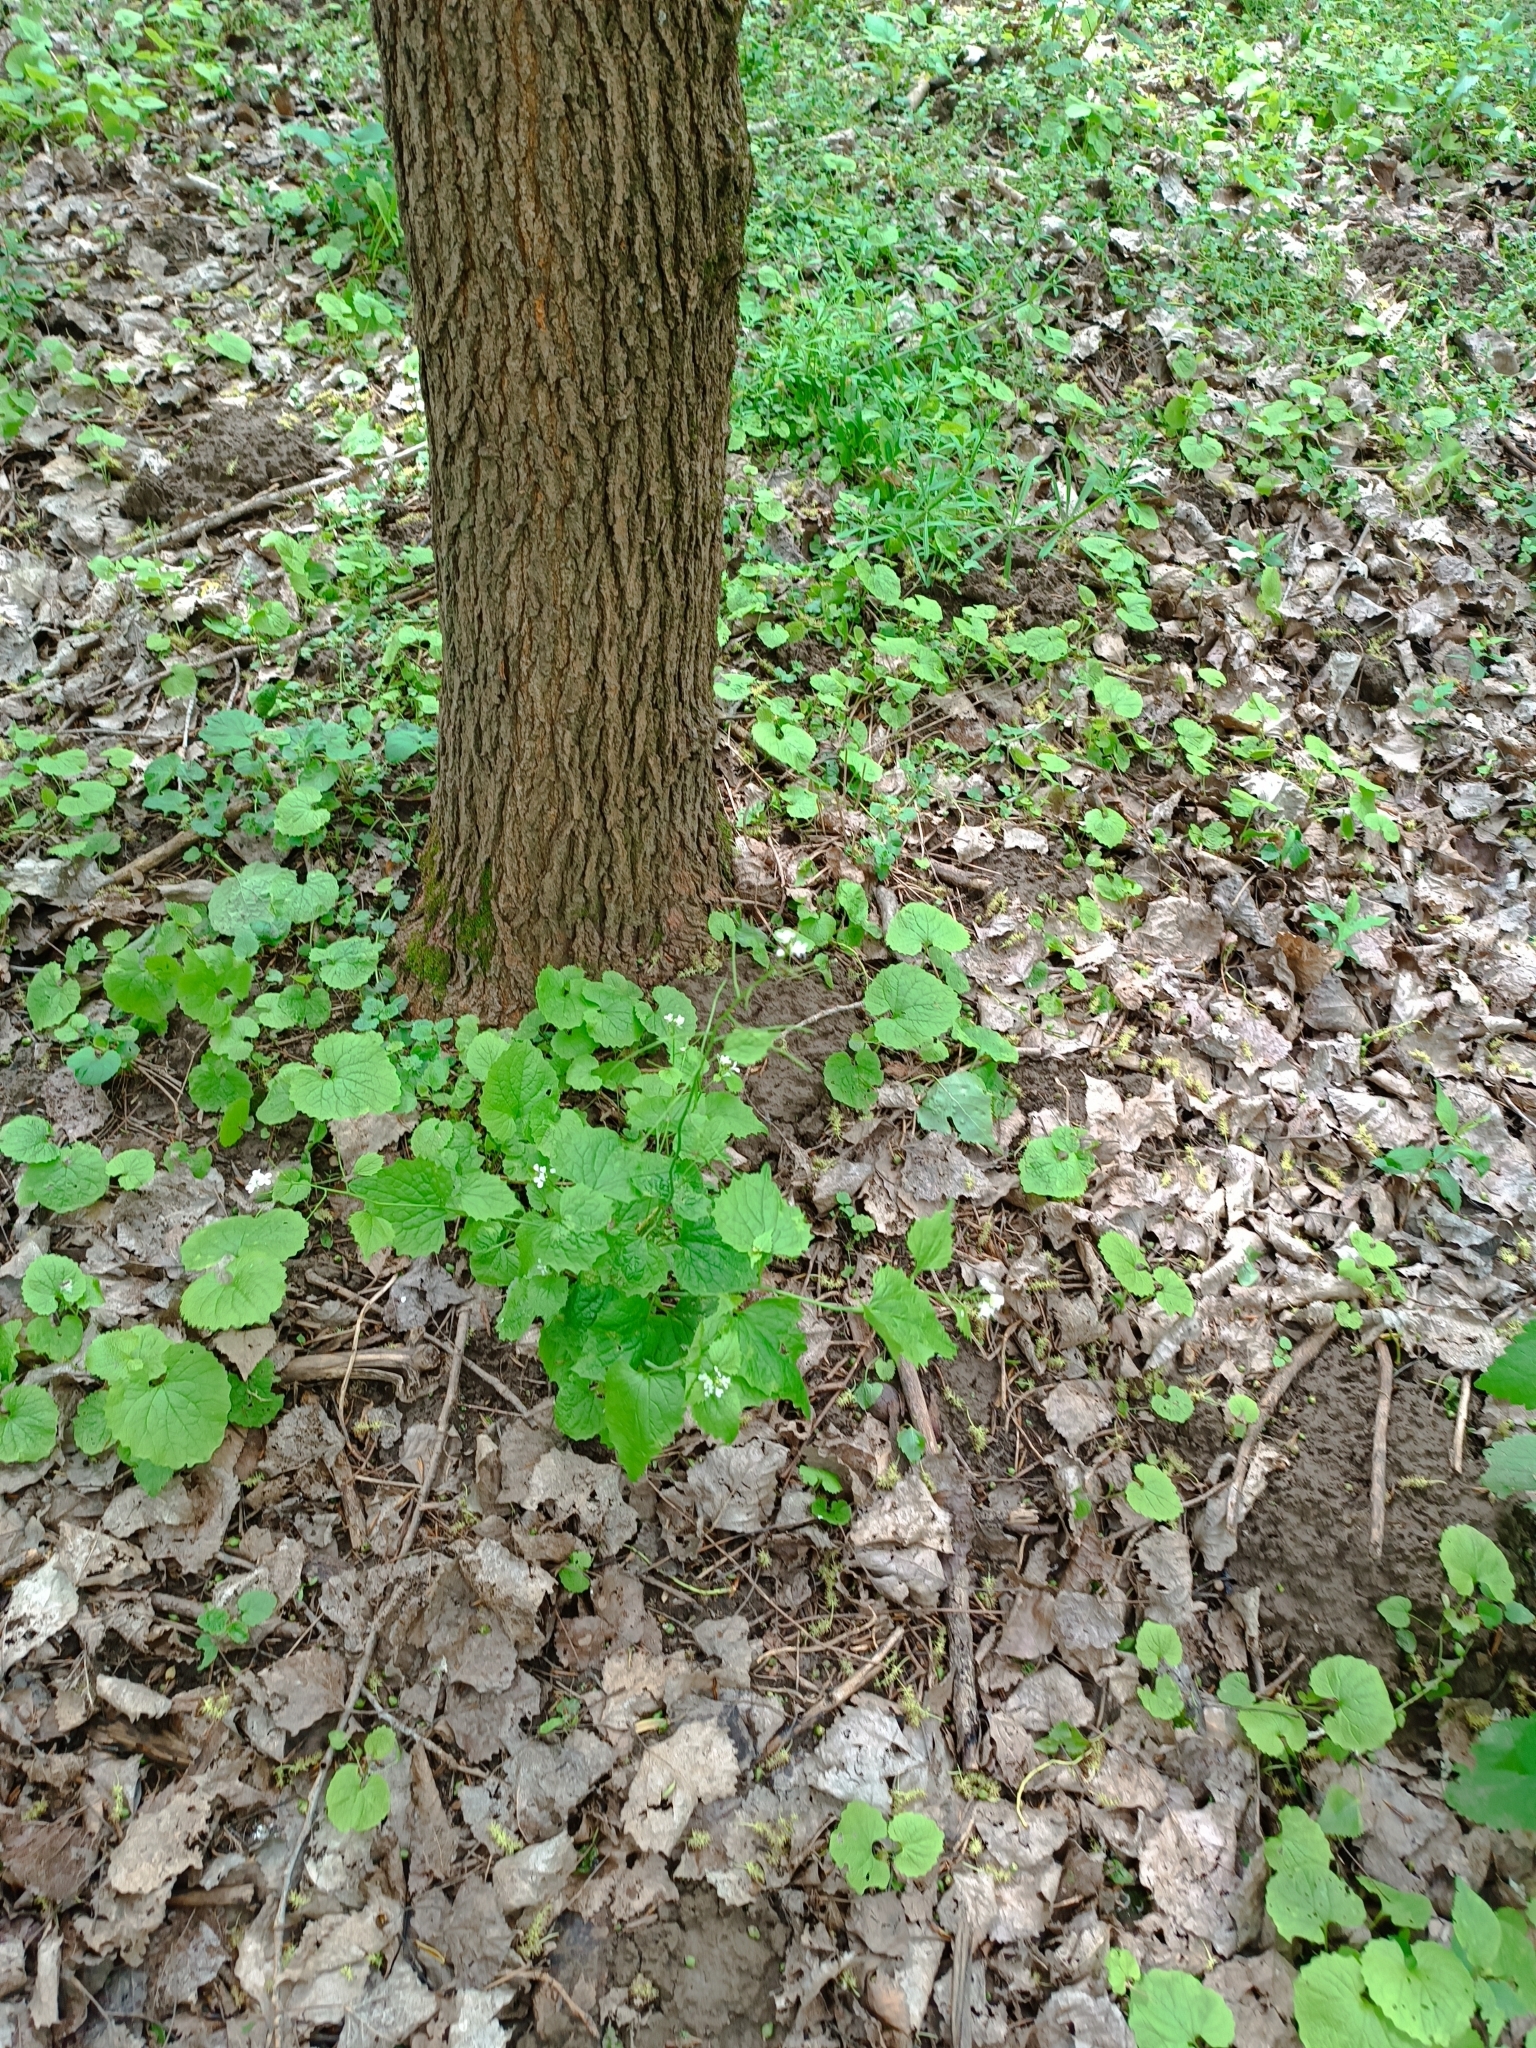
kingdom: Plantae
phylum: Tracheophyta
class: Magnoliopsida
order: Brassicales
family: Brassicaceae
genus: Alliaria
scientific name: Alliaria petiolata
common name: Garlic mustard
